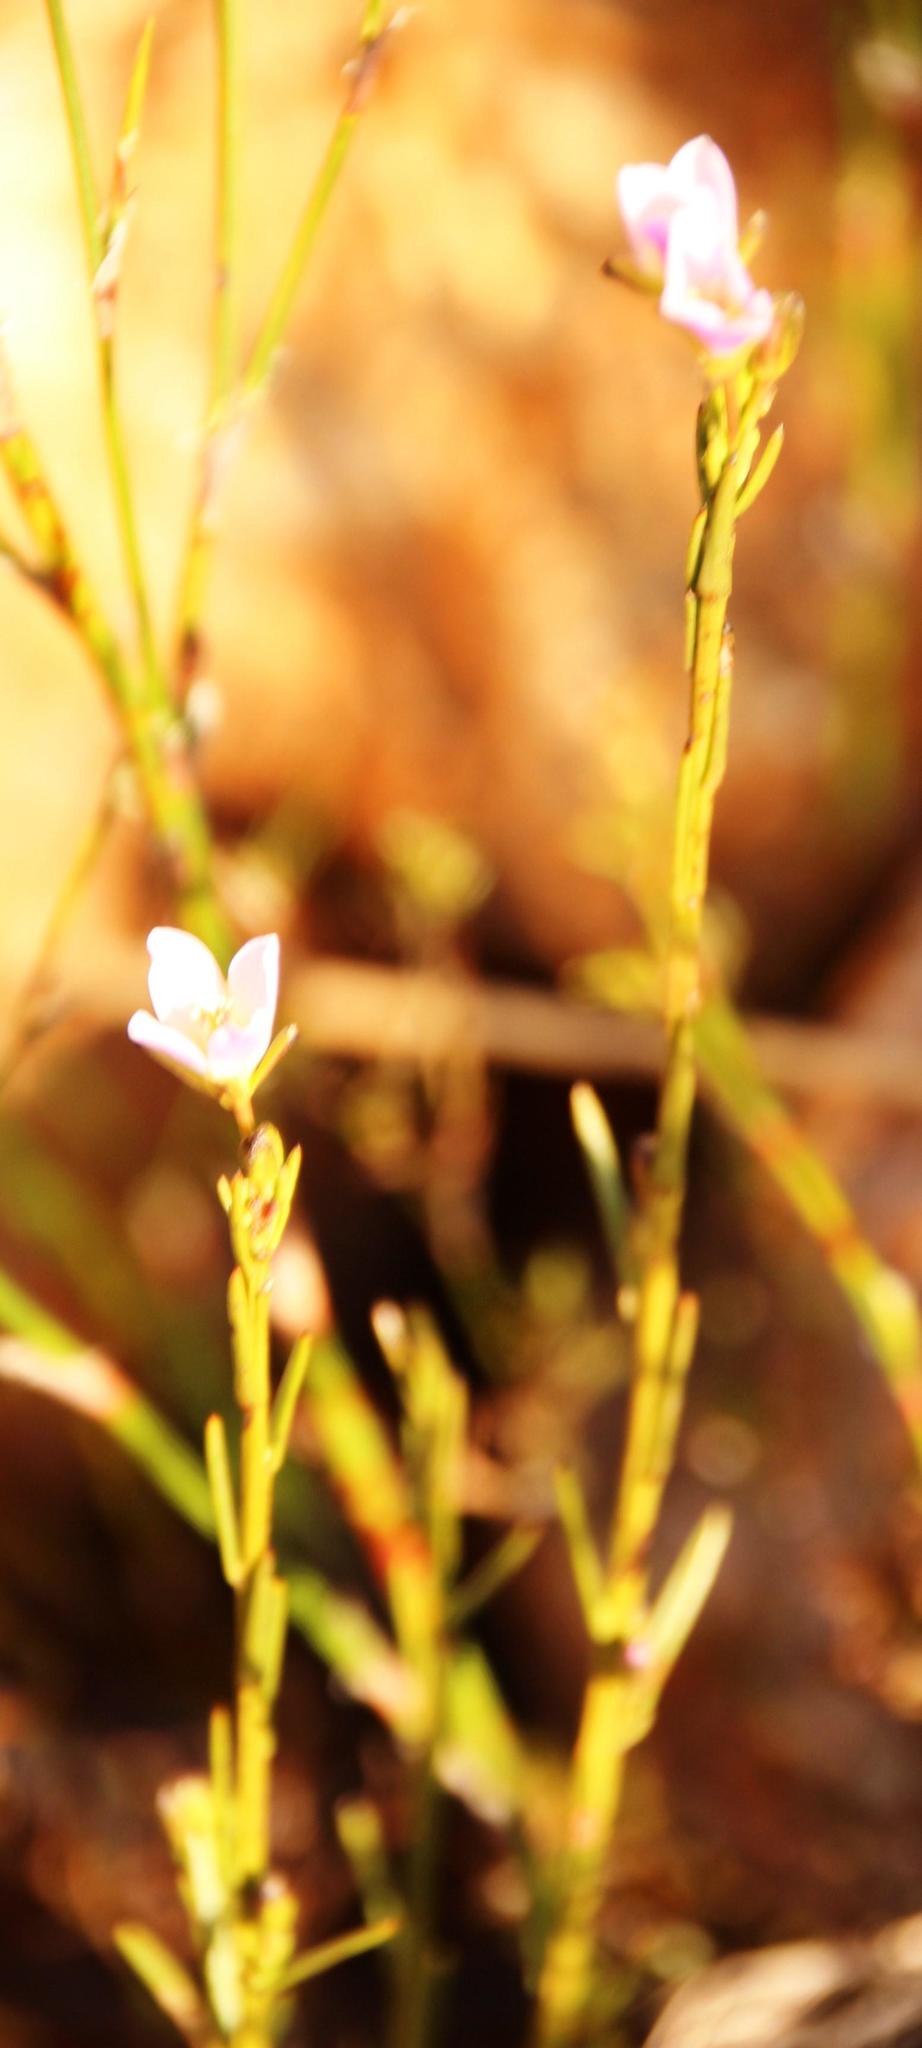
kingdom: Plantae
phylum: Tracheophyta
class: Magnoliopsida
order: Brassicales
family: Brassicaceae
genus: Heliophila
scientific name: Heliophila scoparia
